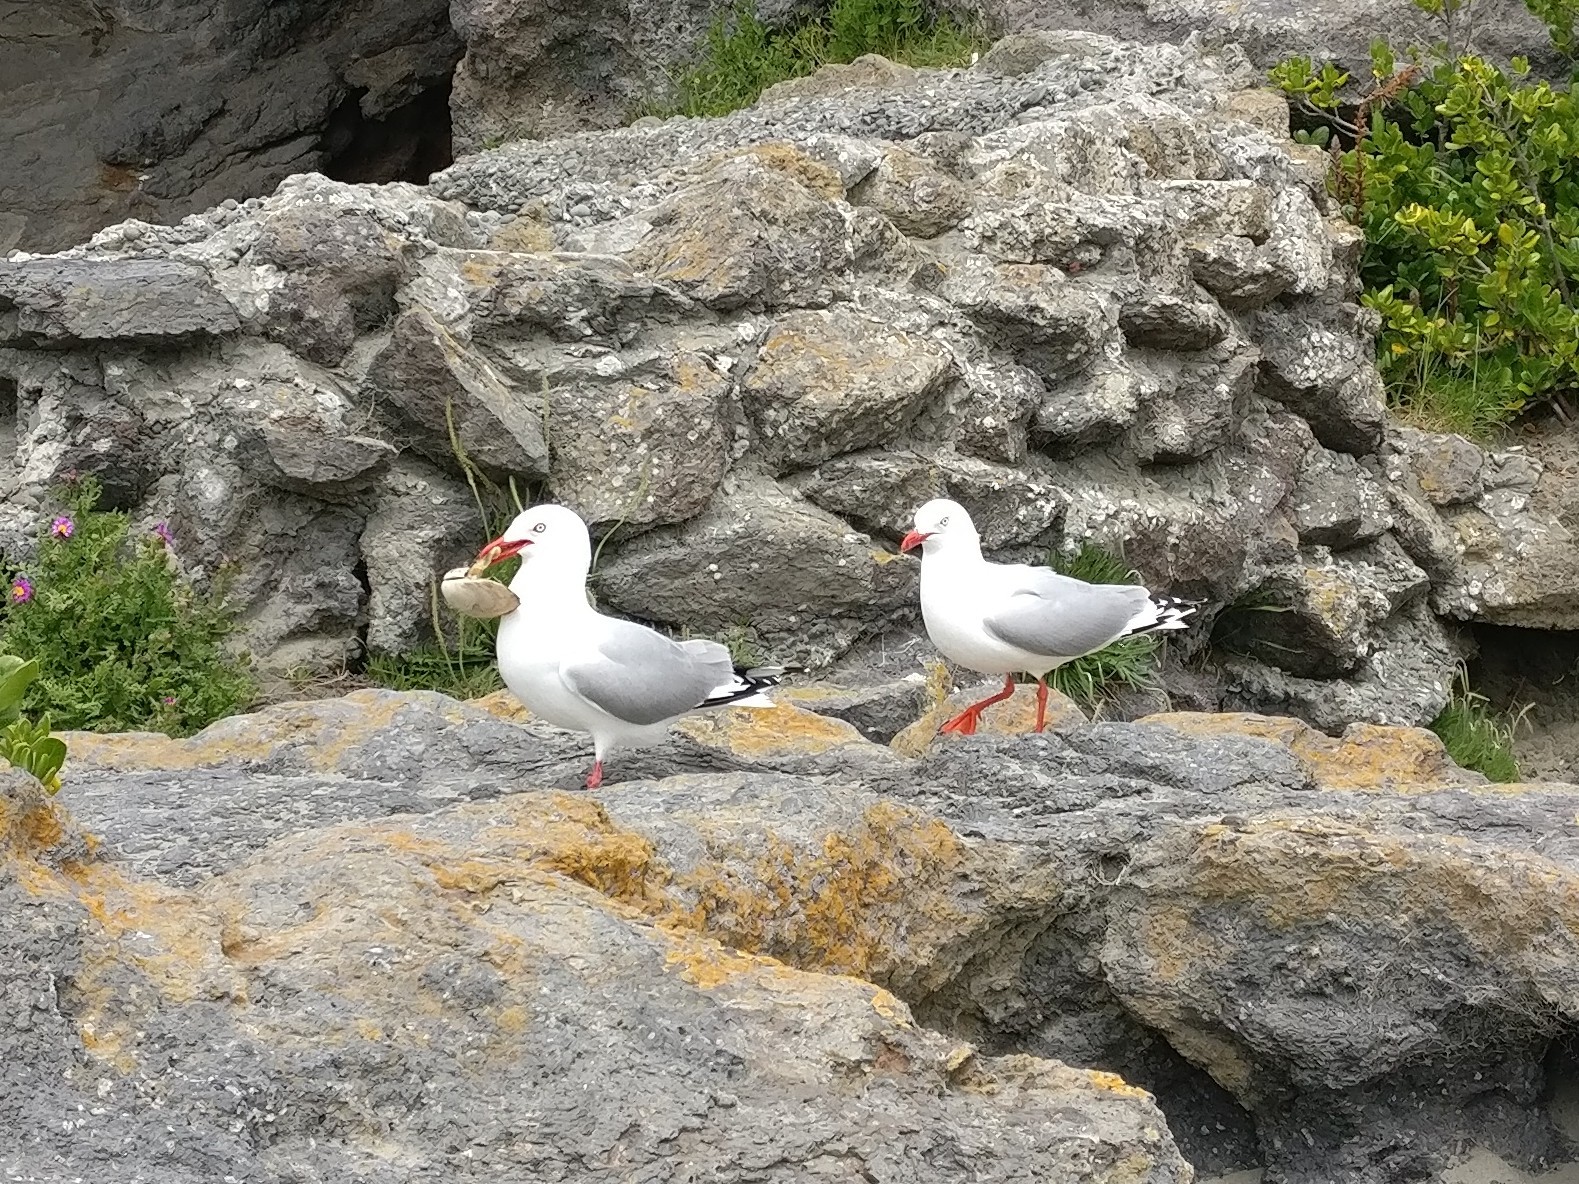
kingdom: Animalia
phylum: Chordata
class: Aves
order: Charadriiformes
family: Laridae
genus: Chroicocephalus
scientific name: Chroicocephalus novaehollandiae
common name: Silver gull
